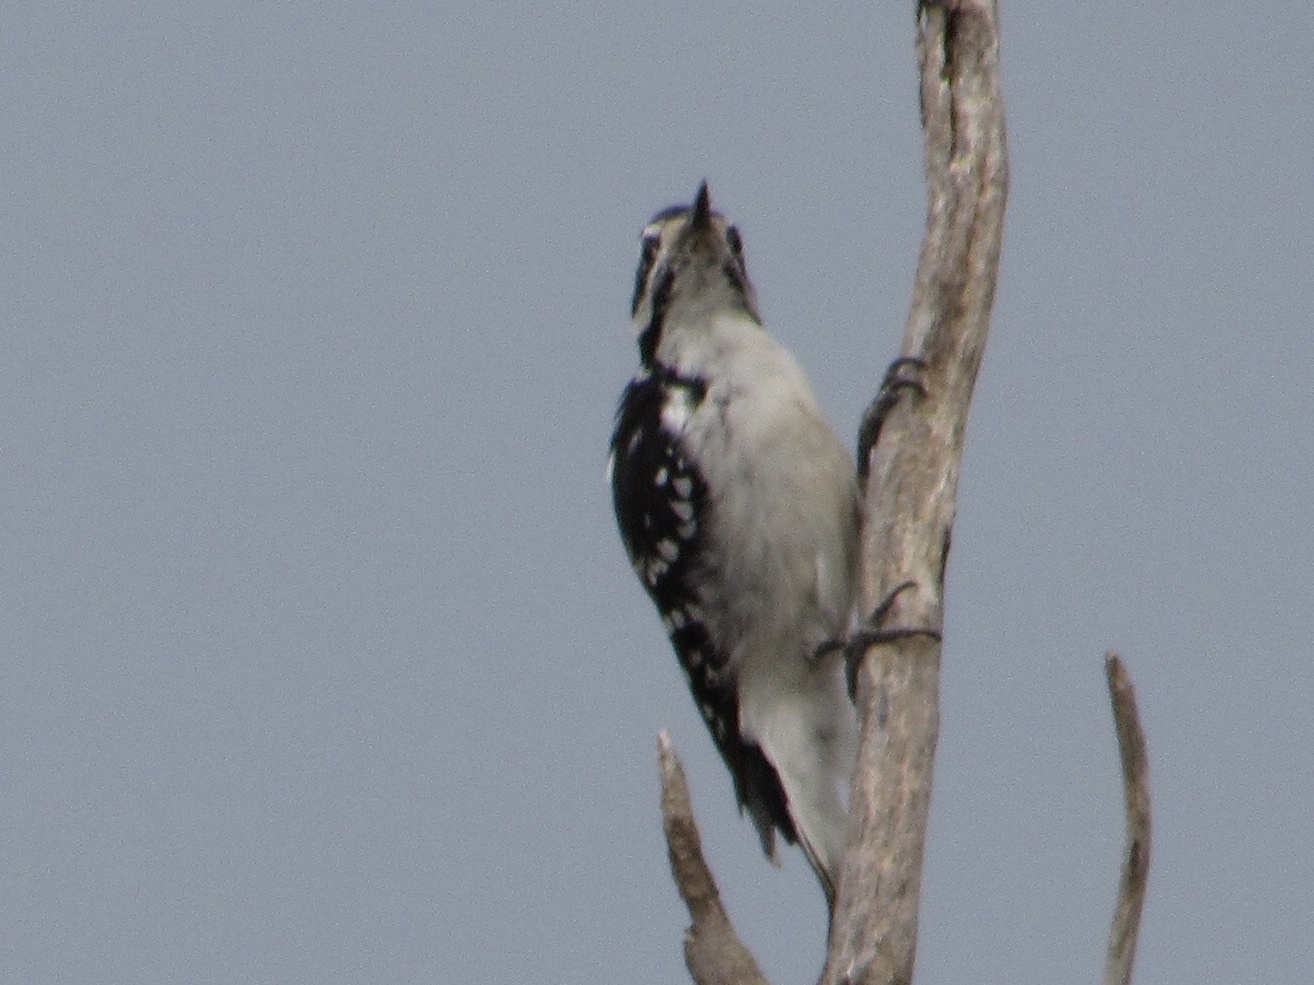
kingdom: Animalia
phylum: Chordata
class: Aves
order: Piciformes
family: Picidae
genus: Leuconotopicus
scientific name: Leuconotopicus villosus
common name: Hairy woodpecker
